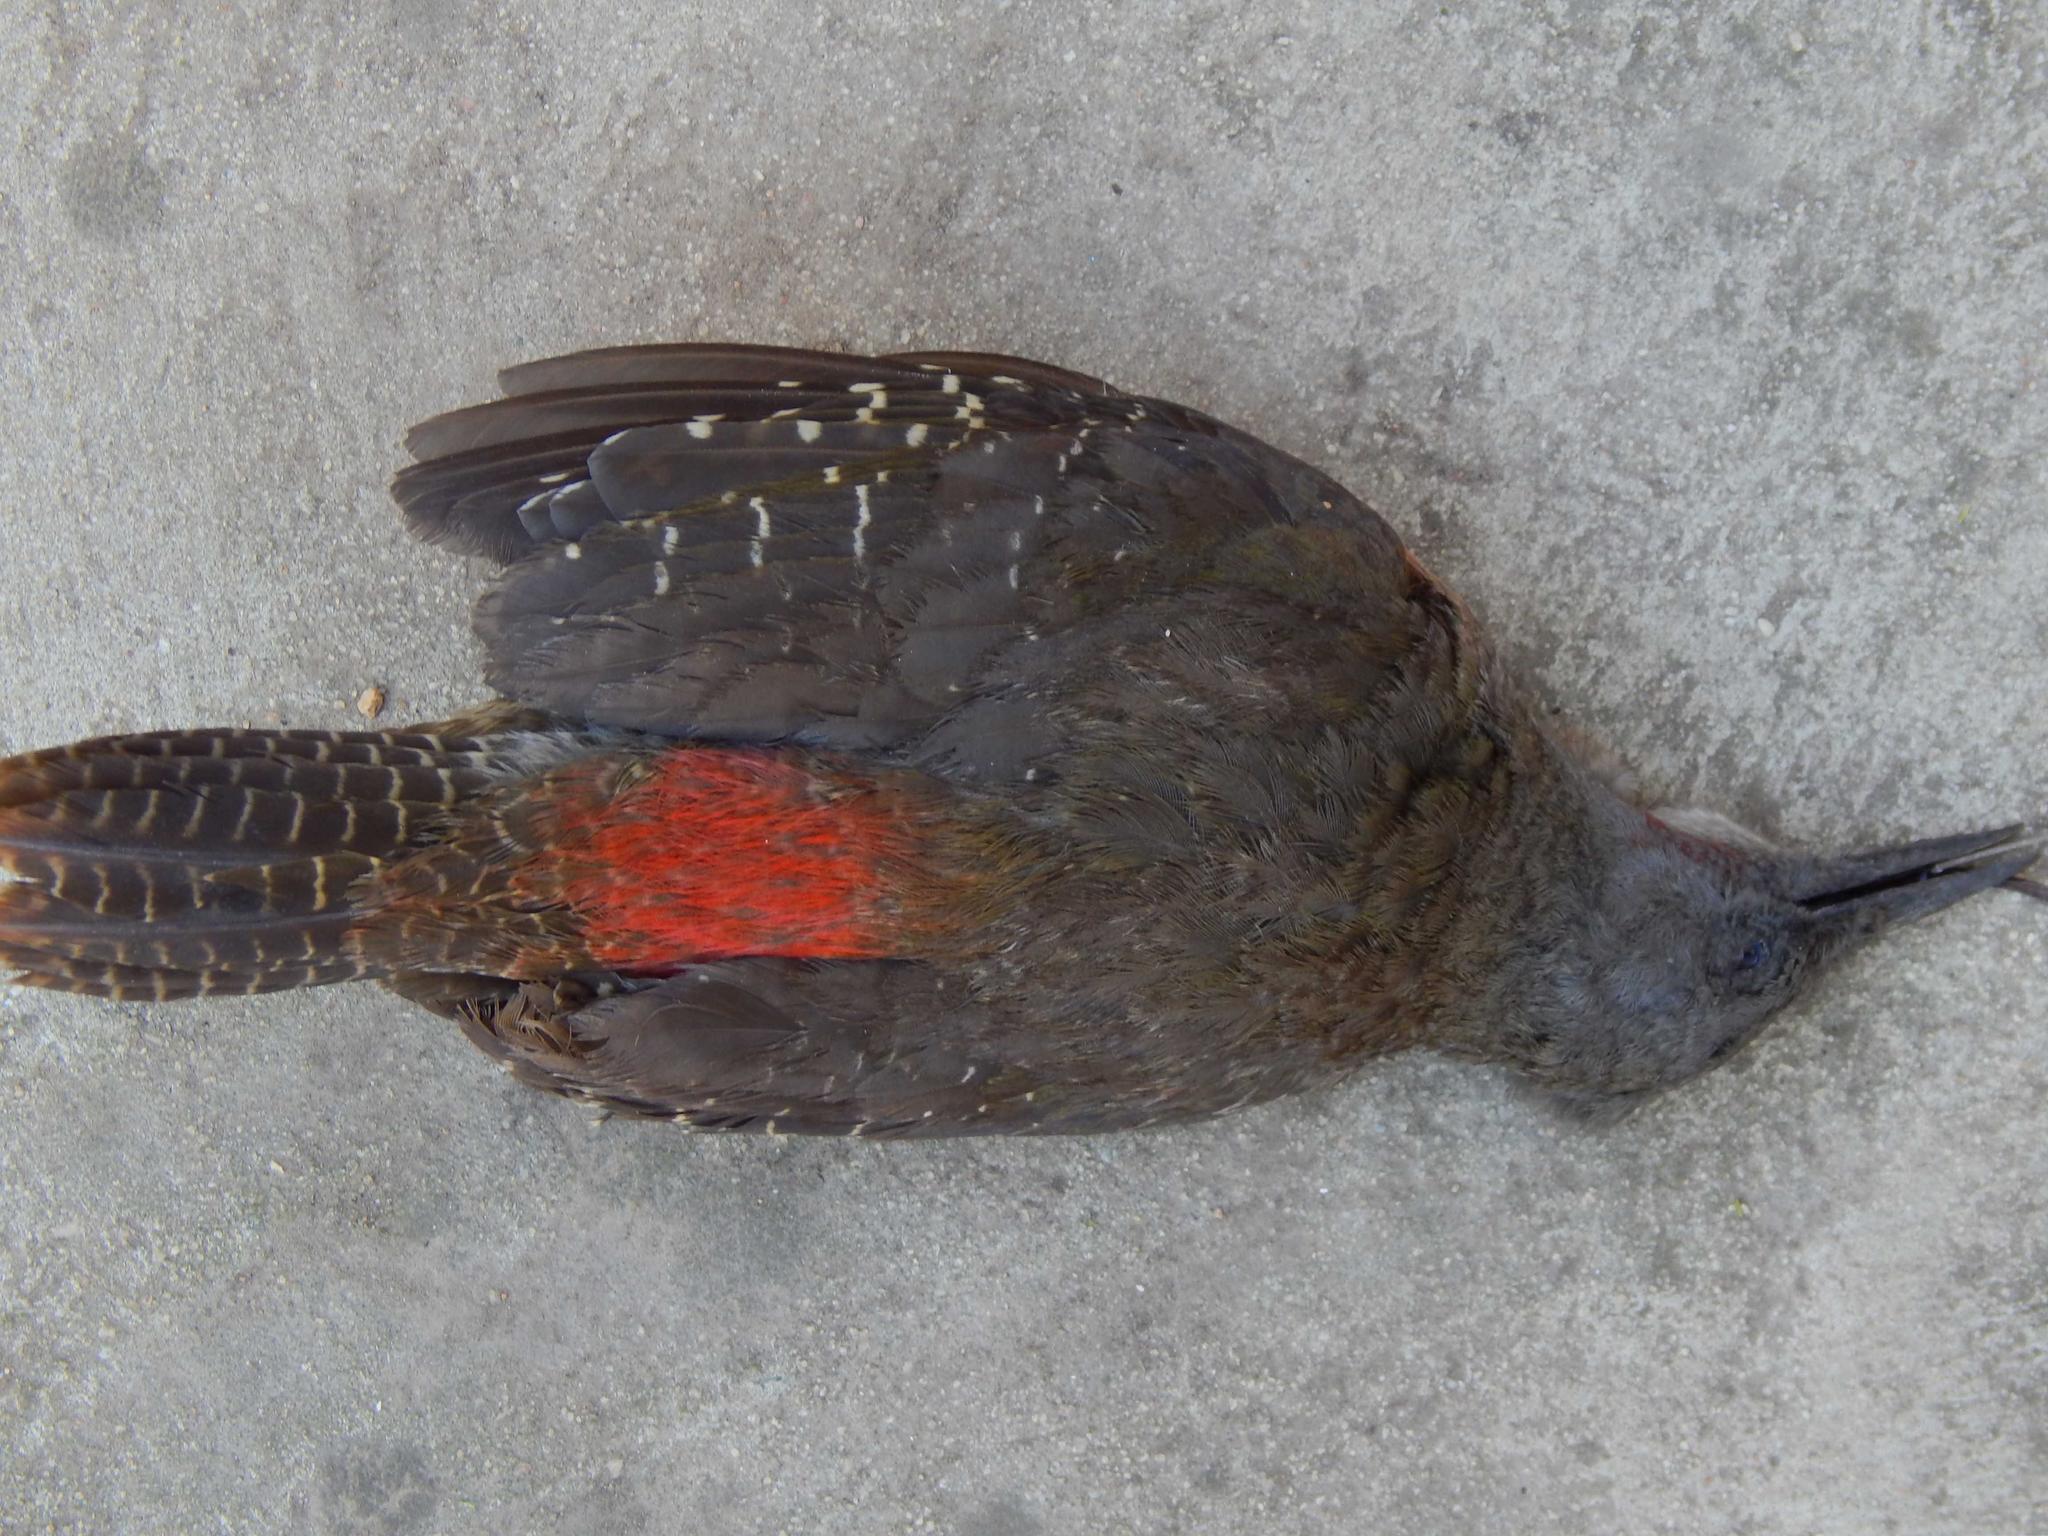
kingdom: Animalia
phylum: Chordata
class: Aves
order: Piciformes
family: Picidae
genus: Geocolaptes
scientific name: Geocolaptes olivaceus
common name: Ground woodpecker
